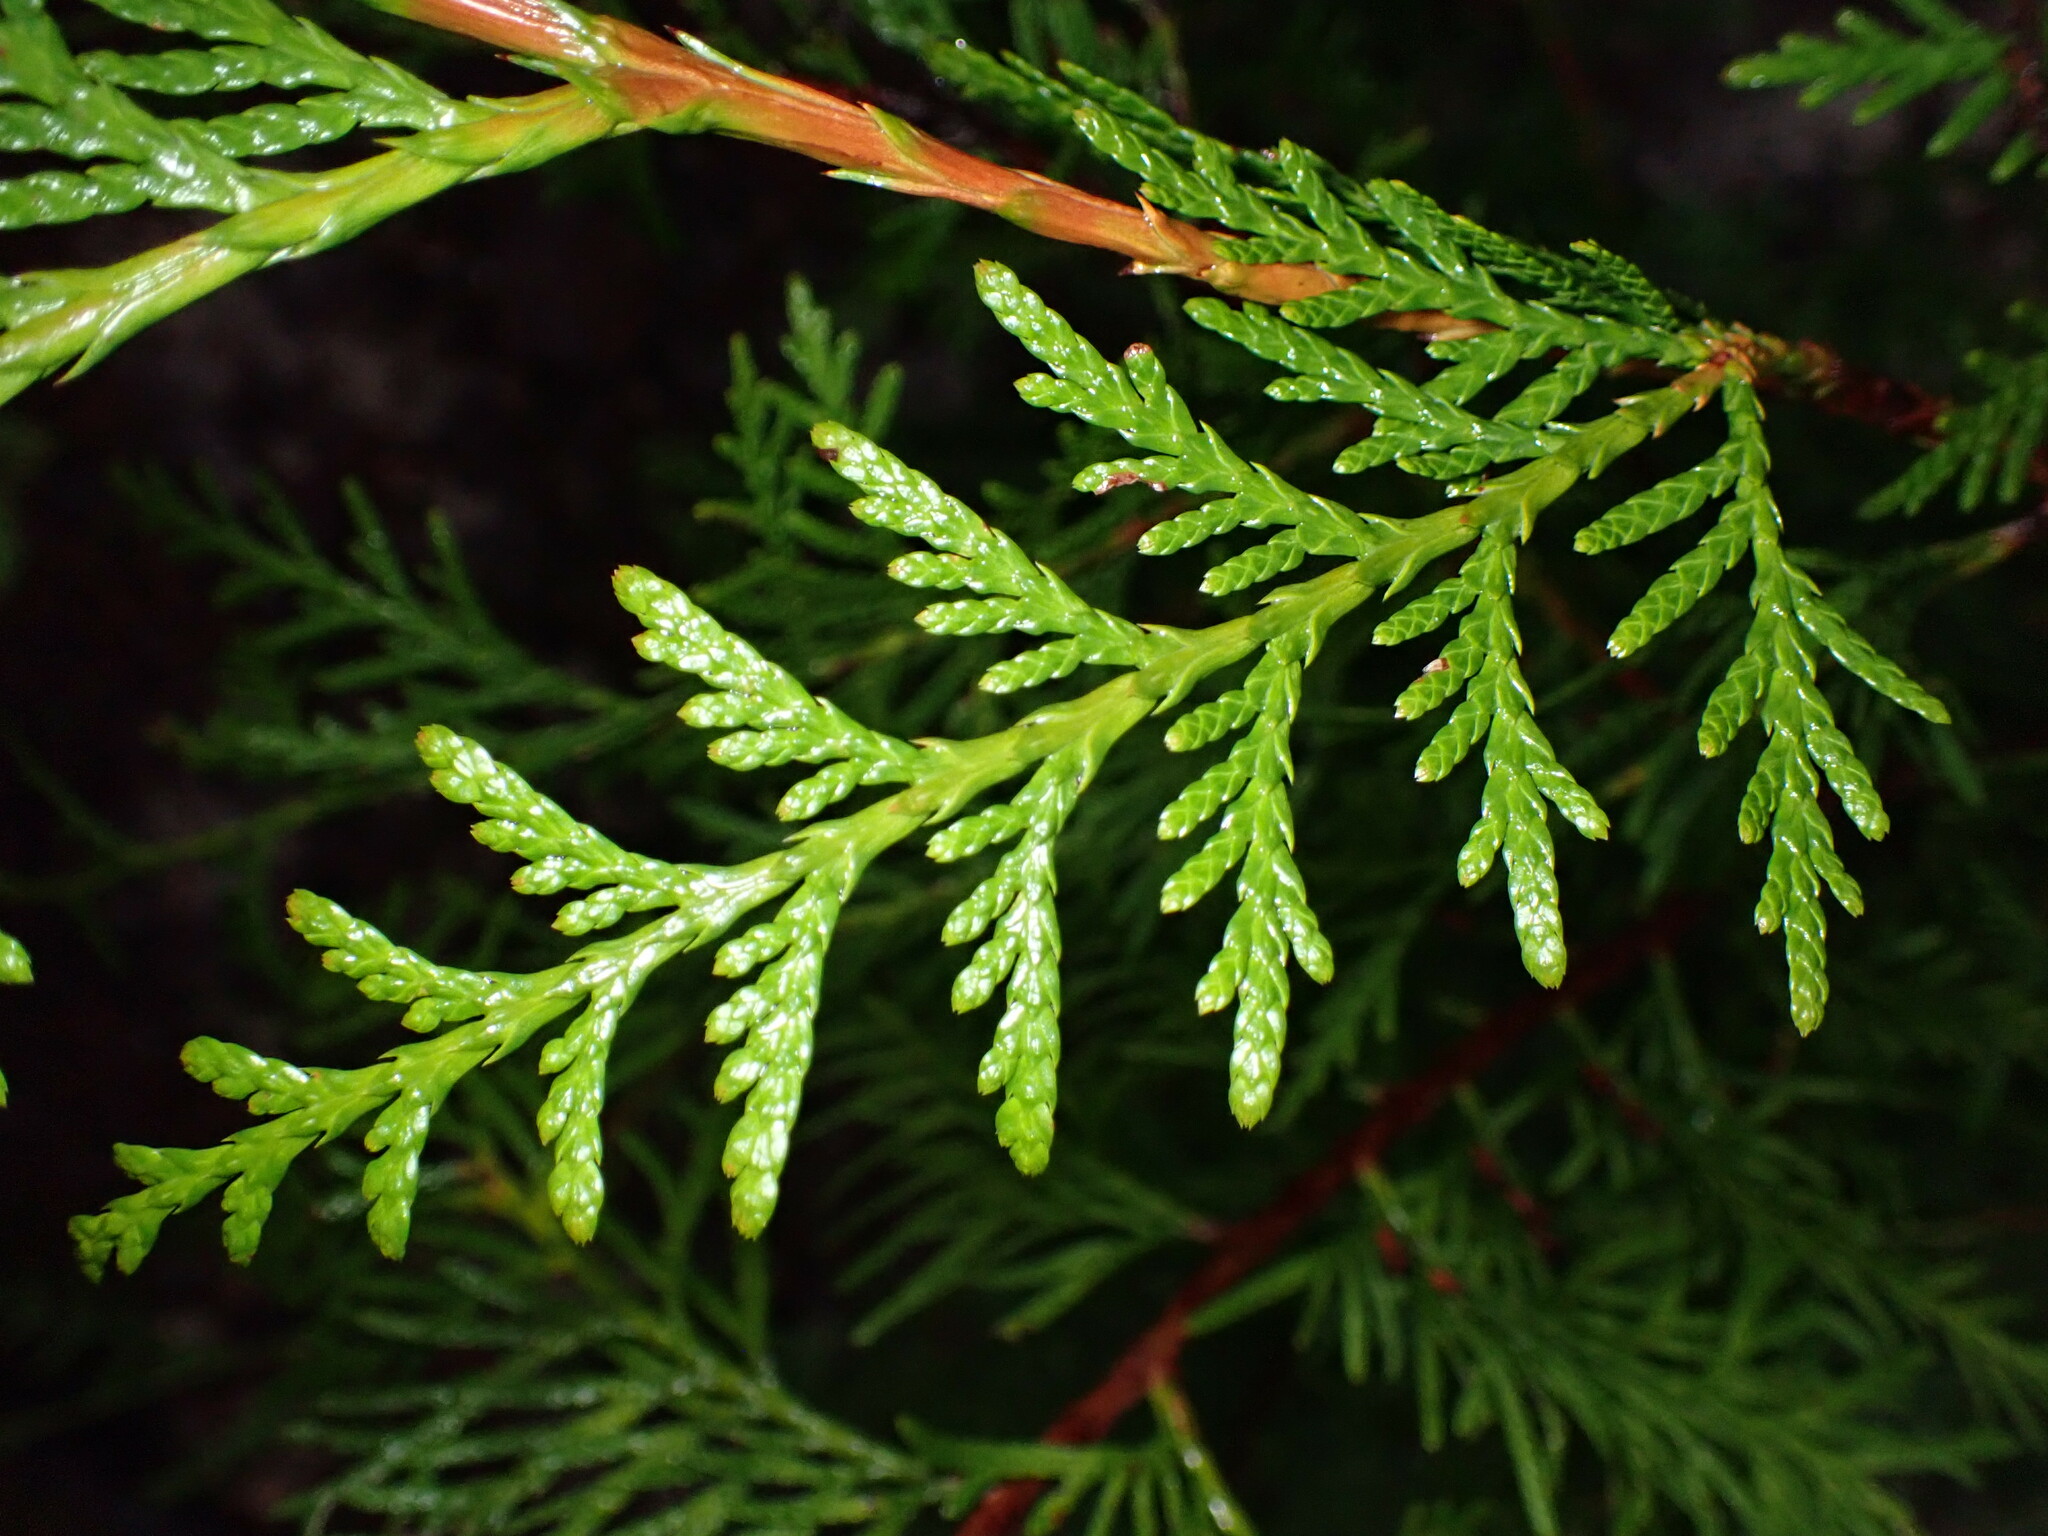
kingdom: Plantae
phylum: Tracheophyta
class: Pinopsida
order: Pinales
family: Cupressaceae
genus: Thuja
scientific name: Thuja plicata
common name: Western red-cedar
